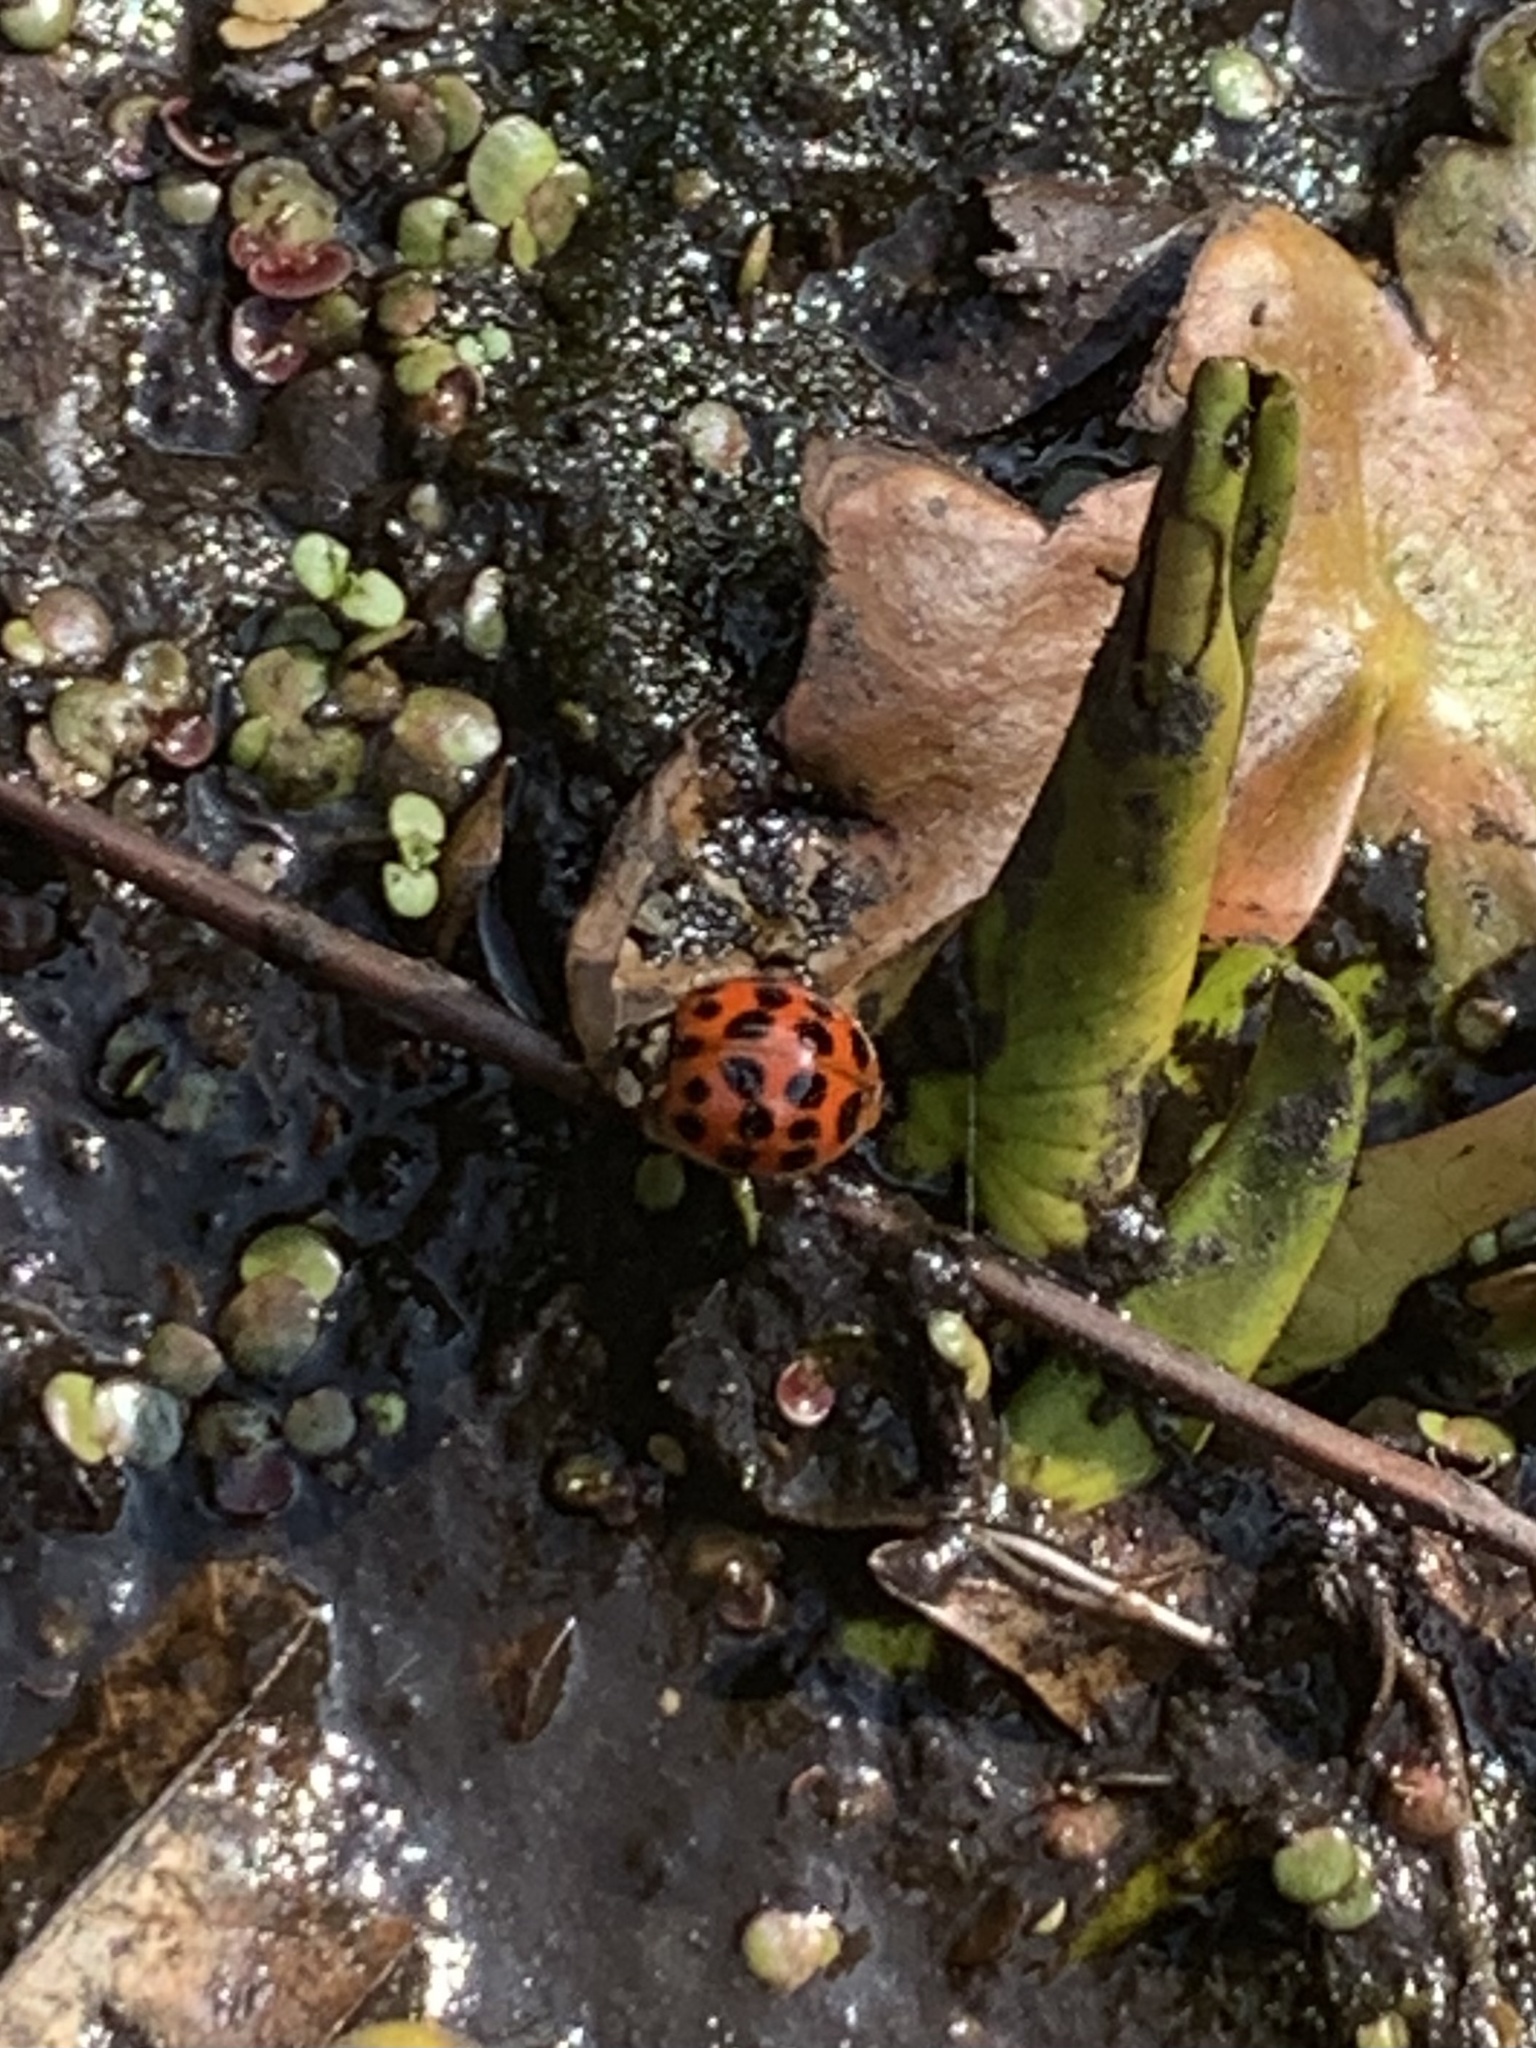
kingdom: Animalia
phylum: Arthropoda
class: Insecta
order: Coleoptera
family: Coccinellidae
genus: Harmonia
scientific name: Harmonia axyridis
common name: Harlequin ladybird
